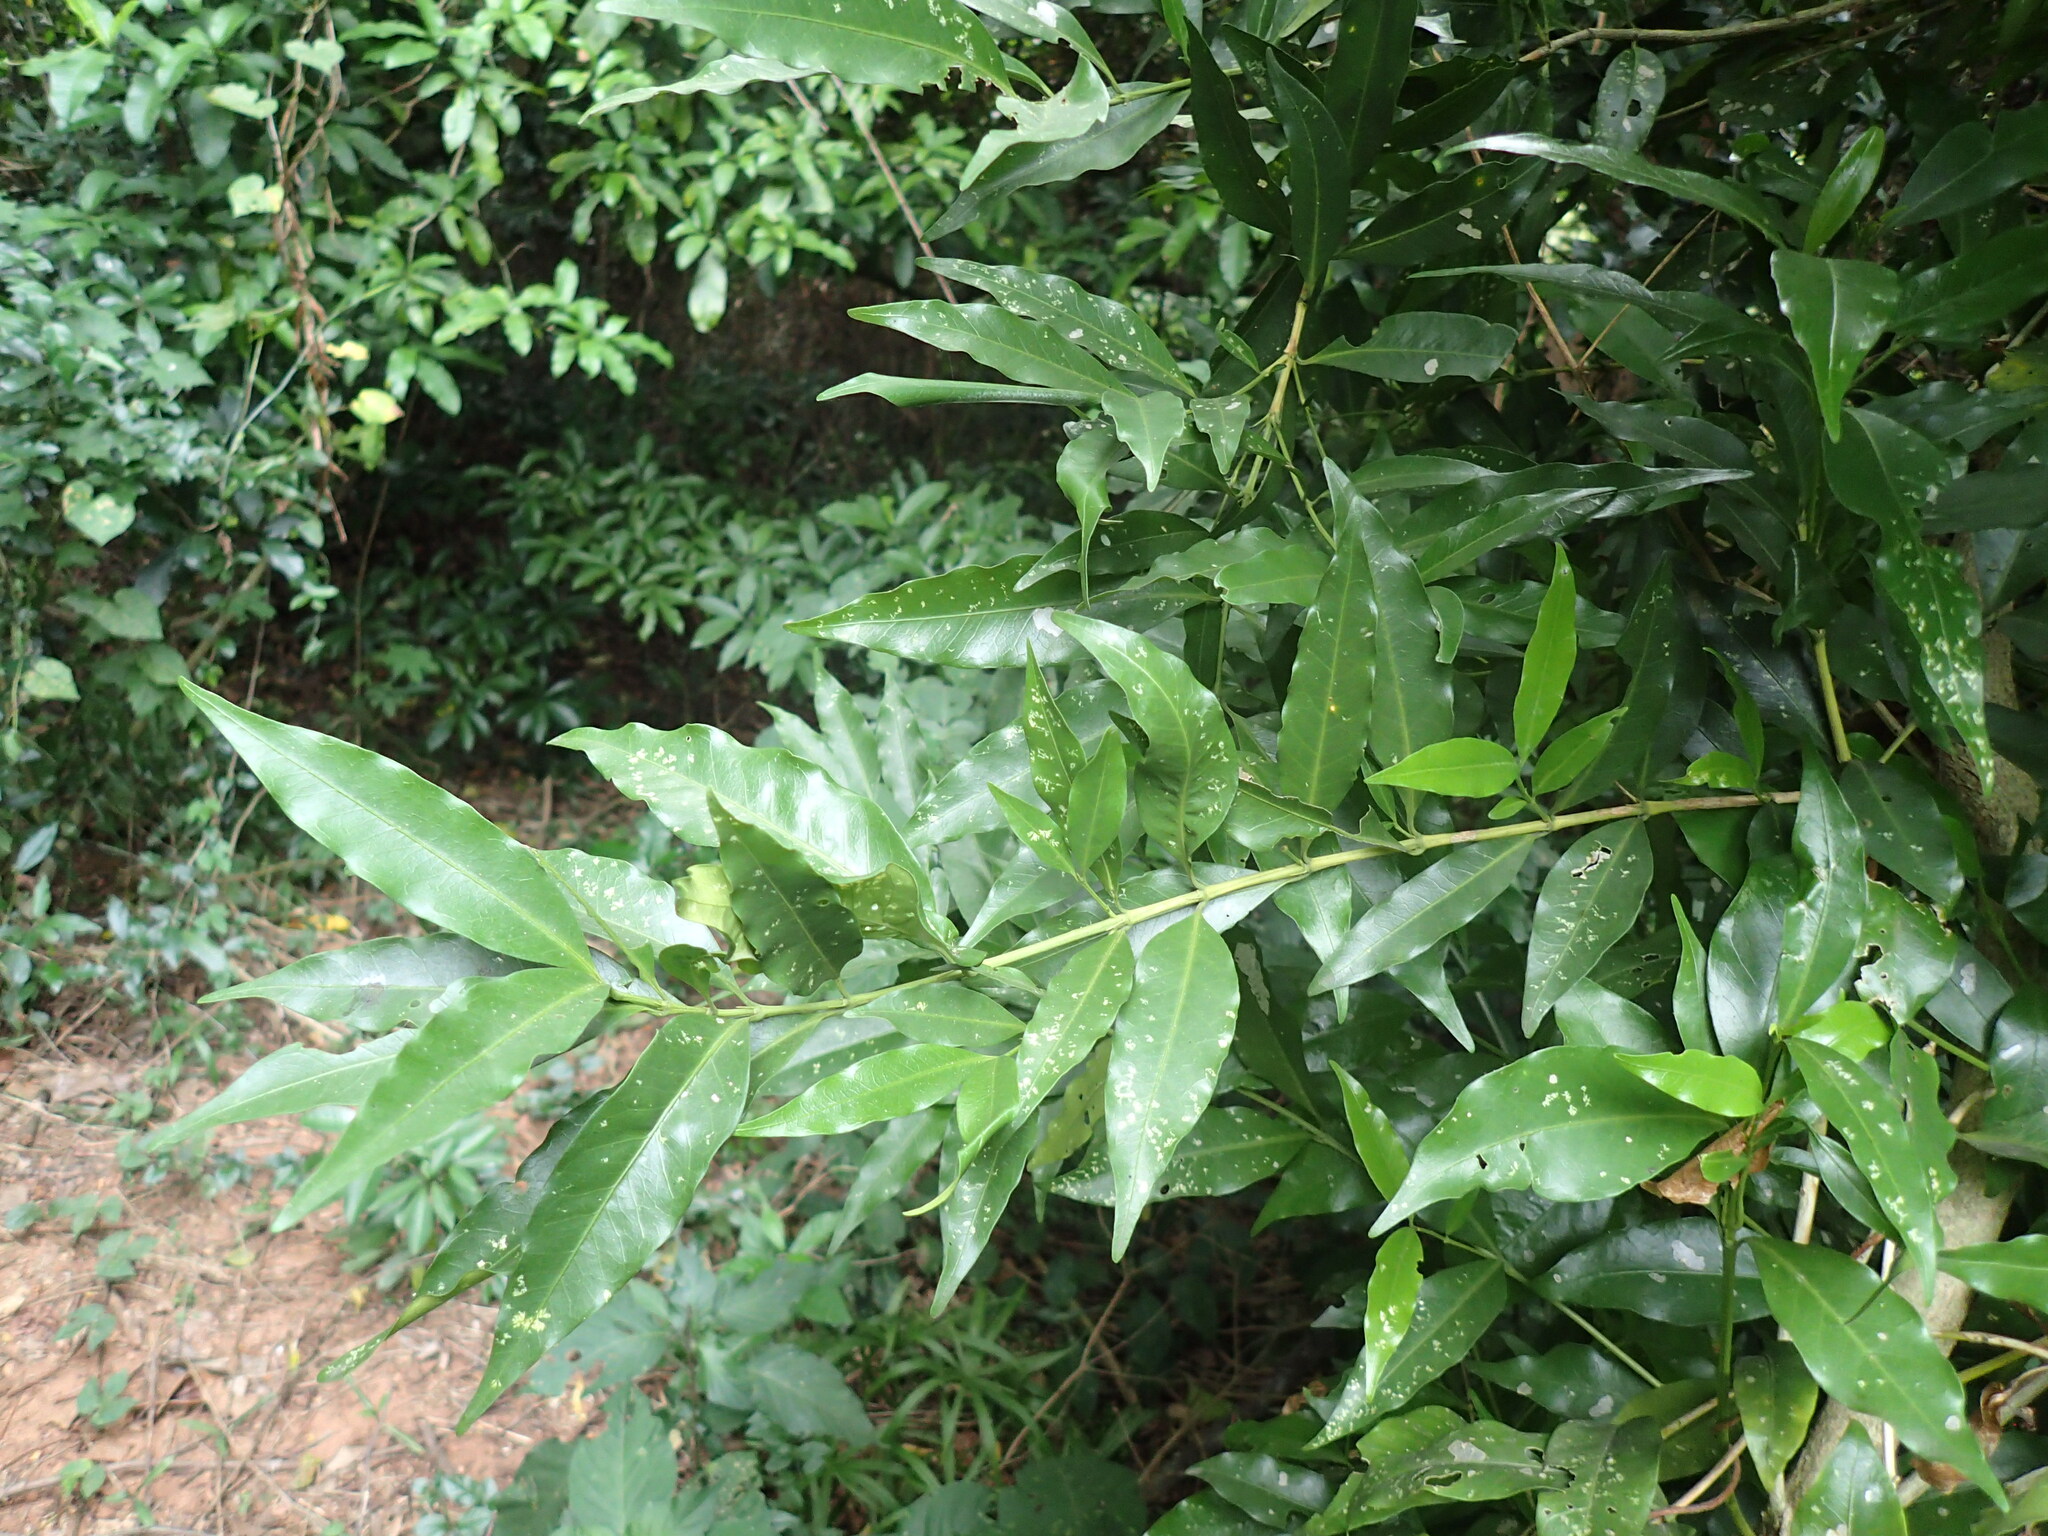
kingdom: Plantae
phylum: Tracheophyta
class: Magnoliopsida
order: Gentianales
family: Rubiaceae
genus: Empogona
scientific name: Empogona lanceolata
